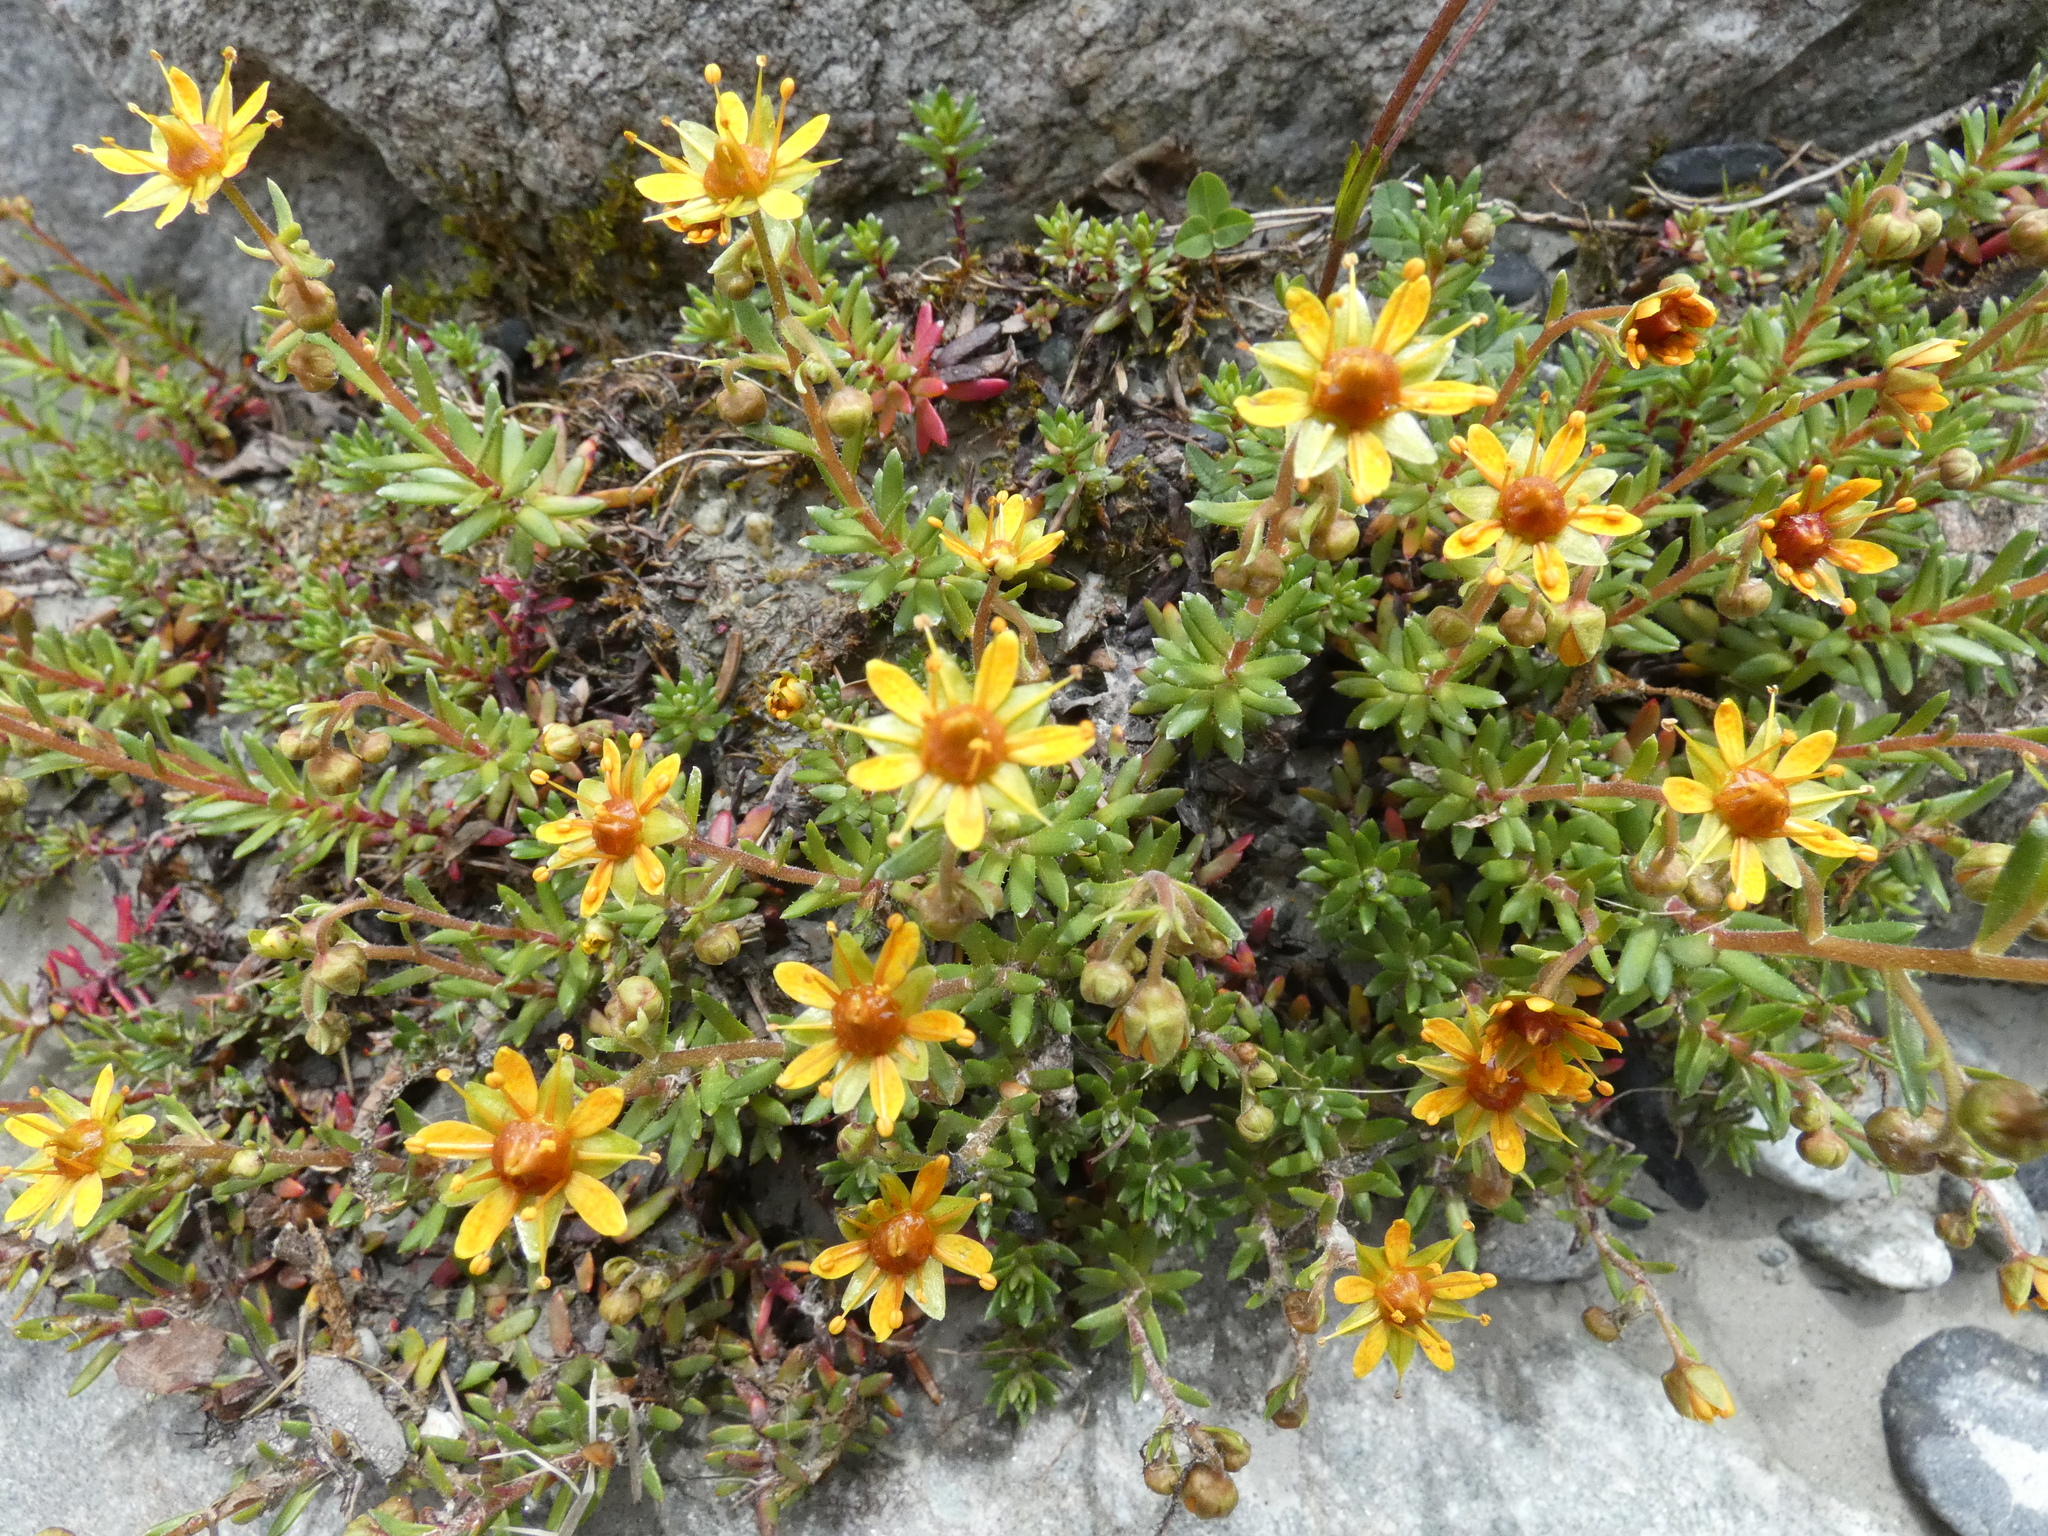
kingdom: Plantae
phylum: Tracheophyta
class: Magnoliopsida
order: Saxifragales
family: Saxifragaceae
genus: Saxifraga
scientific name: Saxifraga aizoides
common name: Yellow mountain saxifrage
